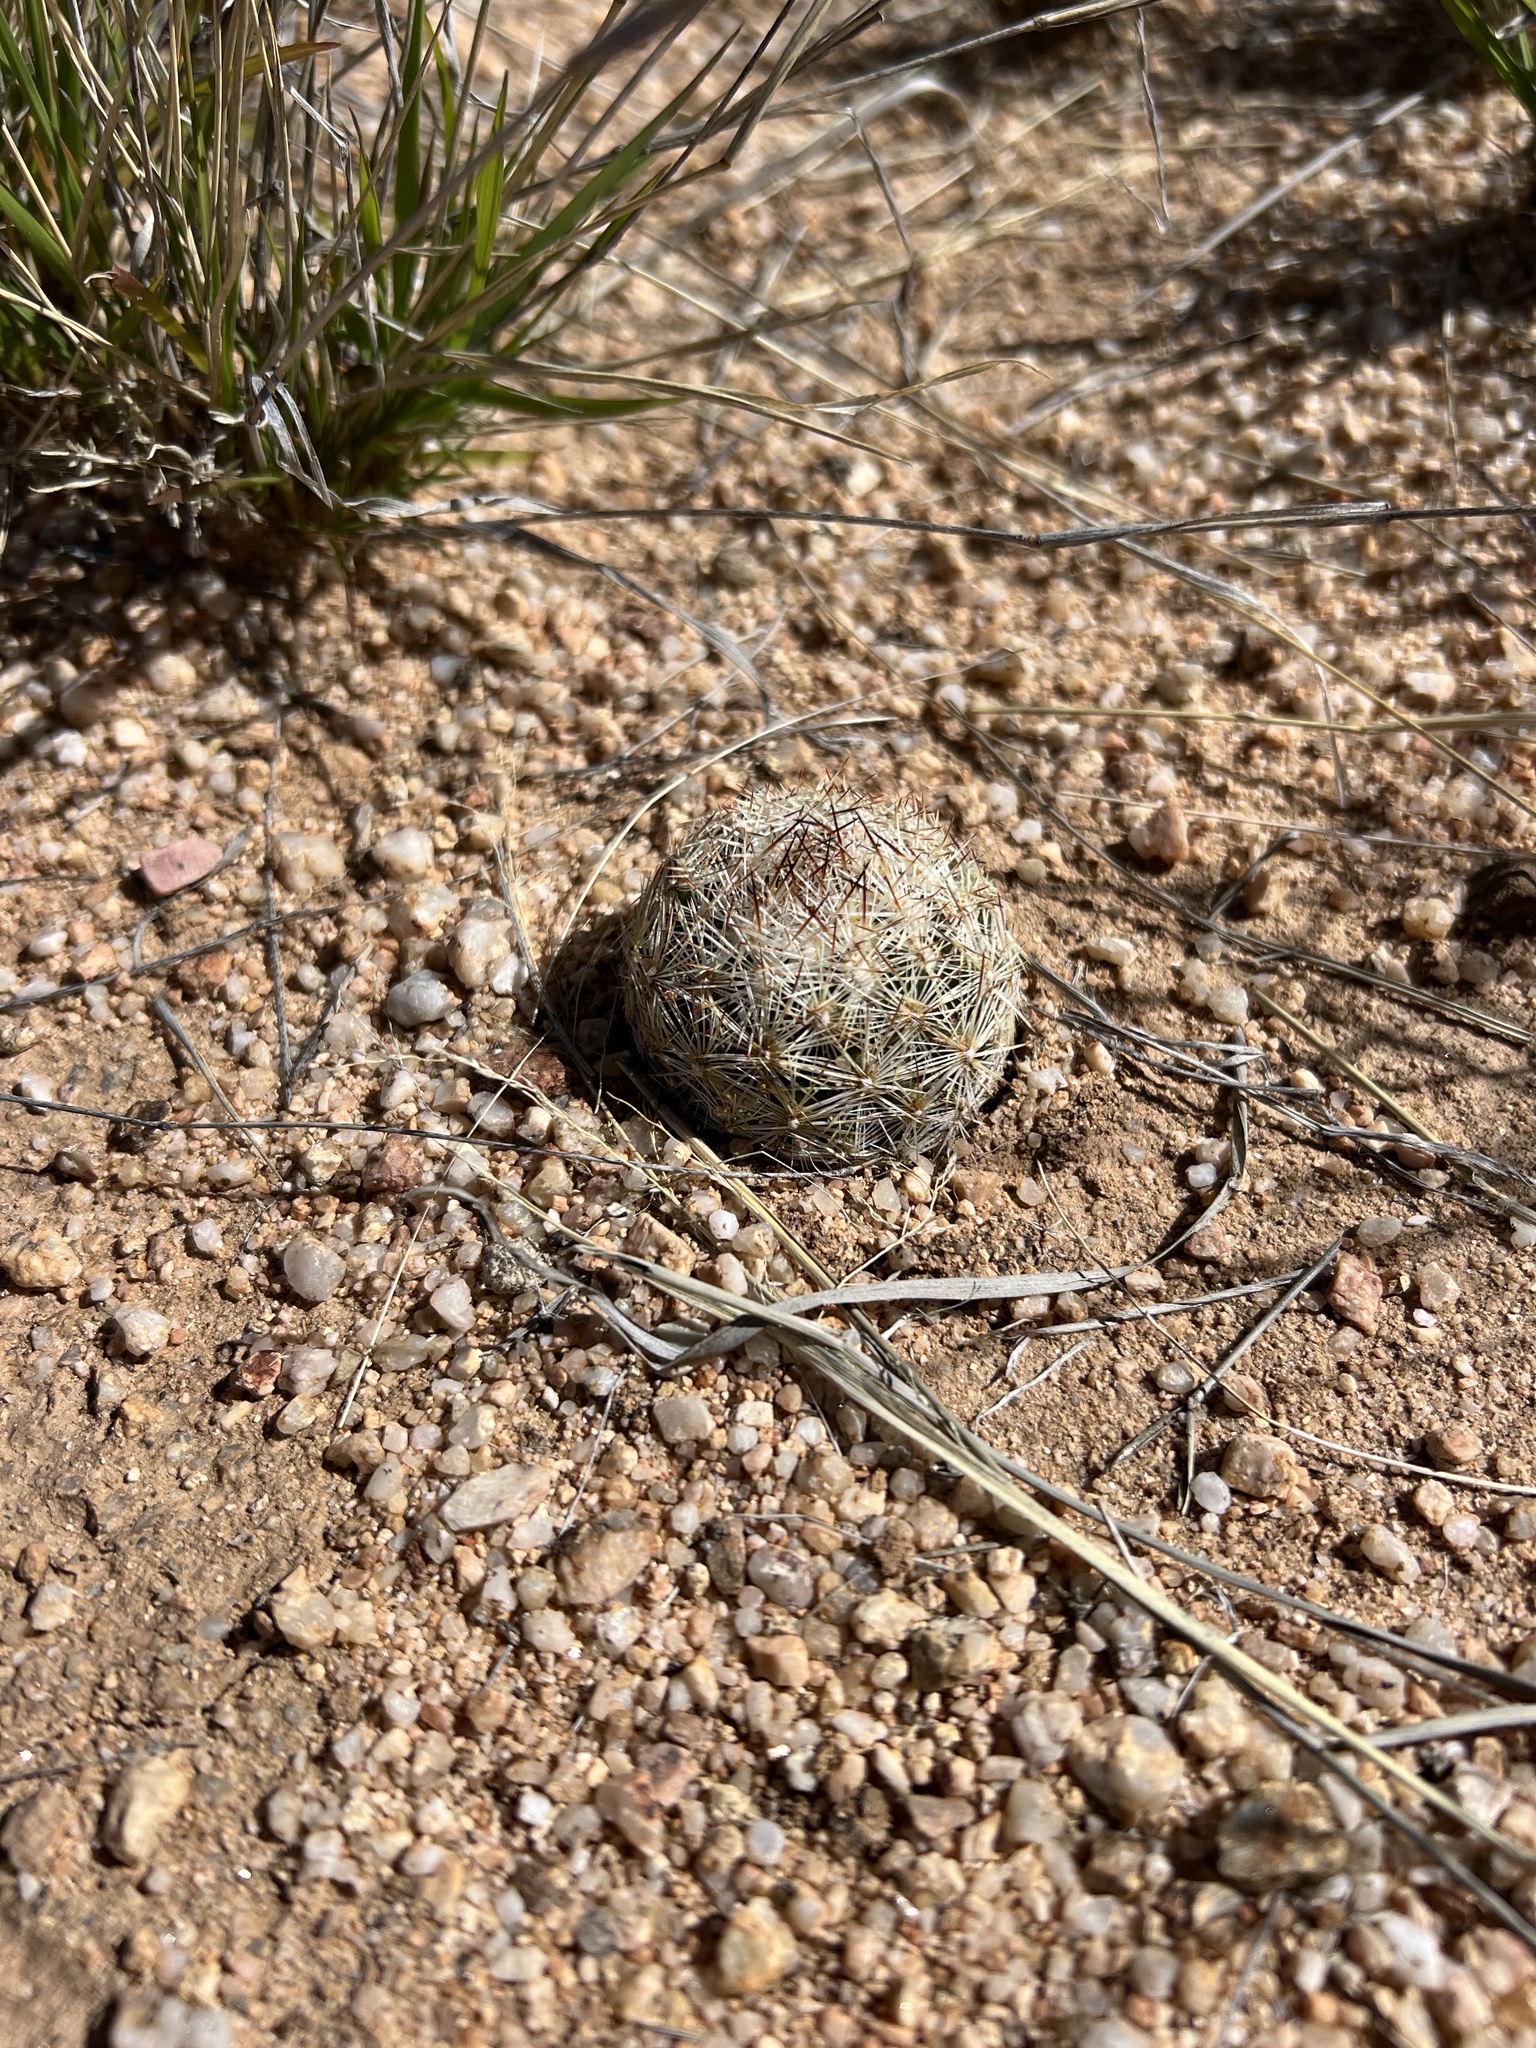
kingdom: Plantae
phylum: Tracheophyta
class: Magnoliopsida
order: Caryophyllales
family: Cactaceae
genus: Pelecyphora
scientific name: Pelecyphora vivipara
